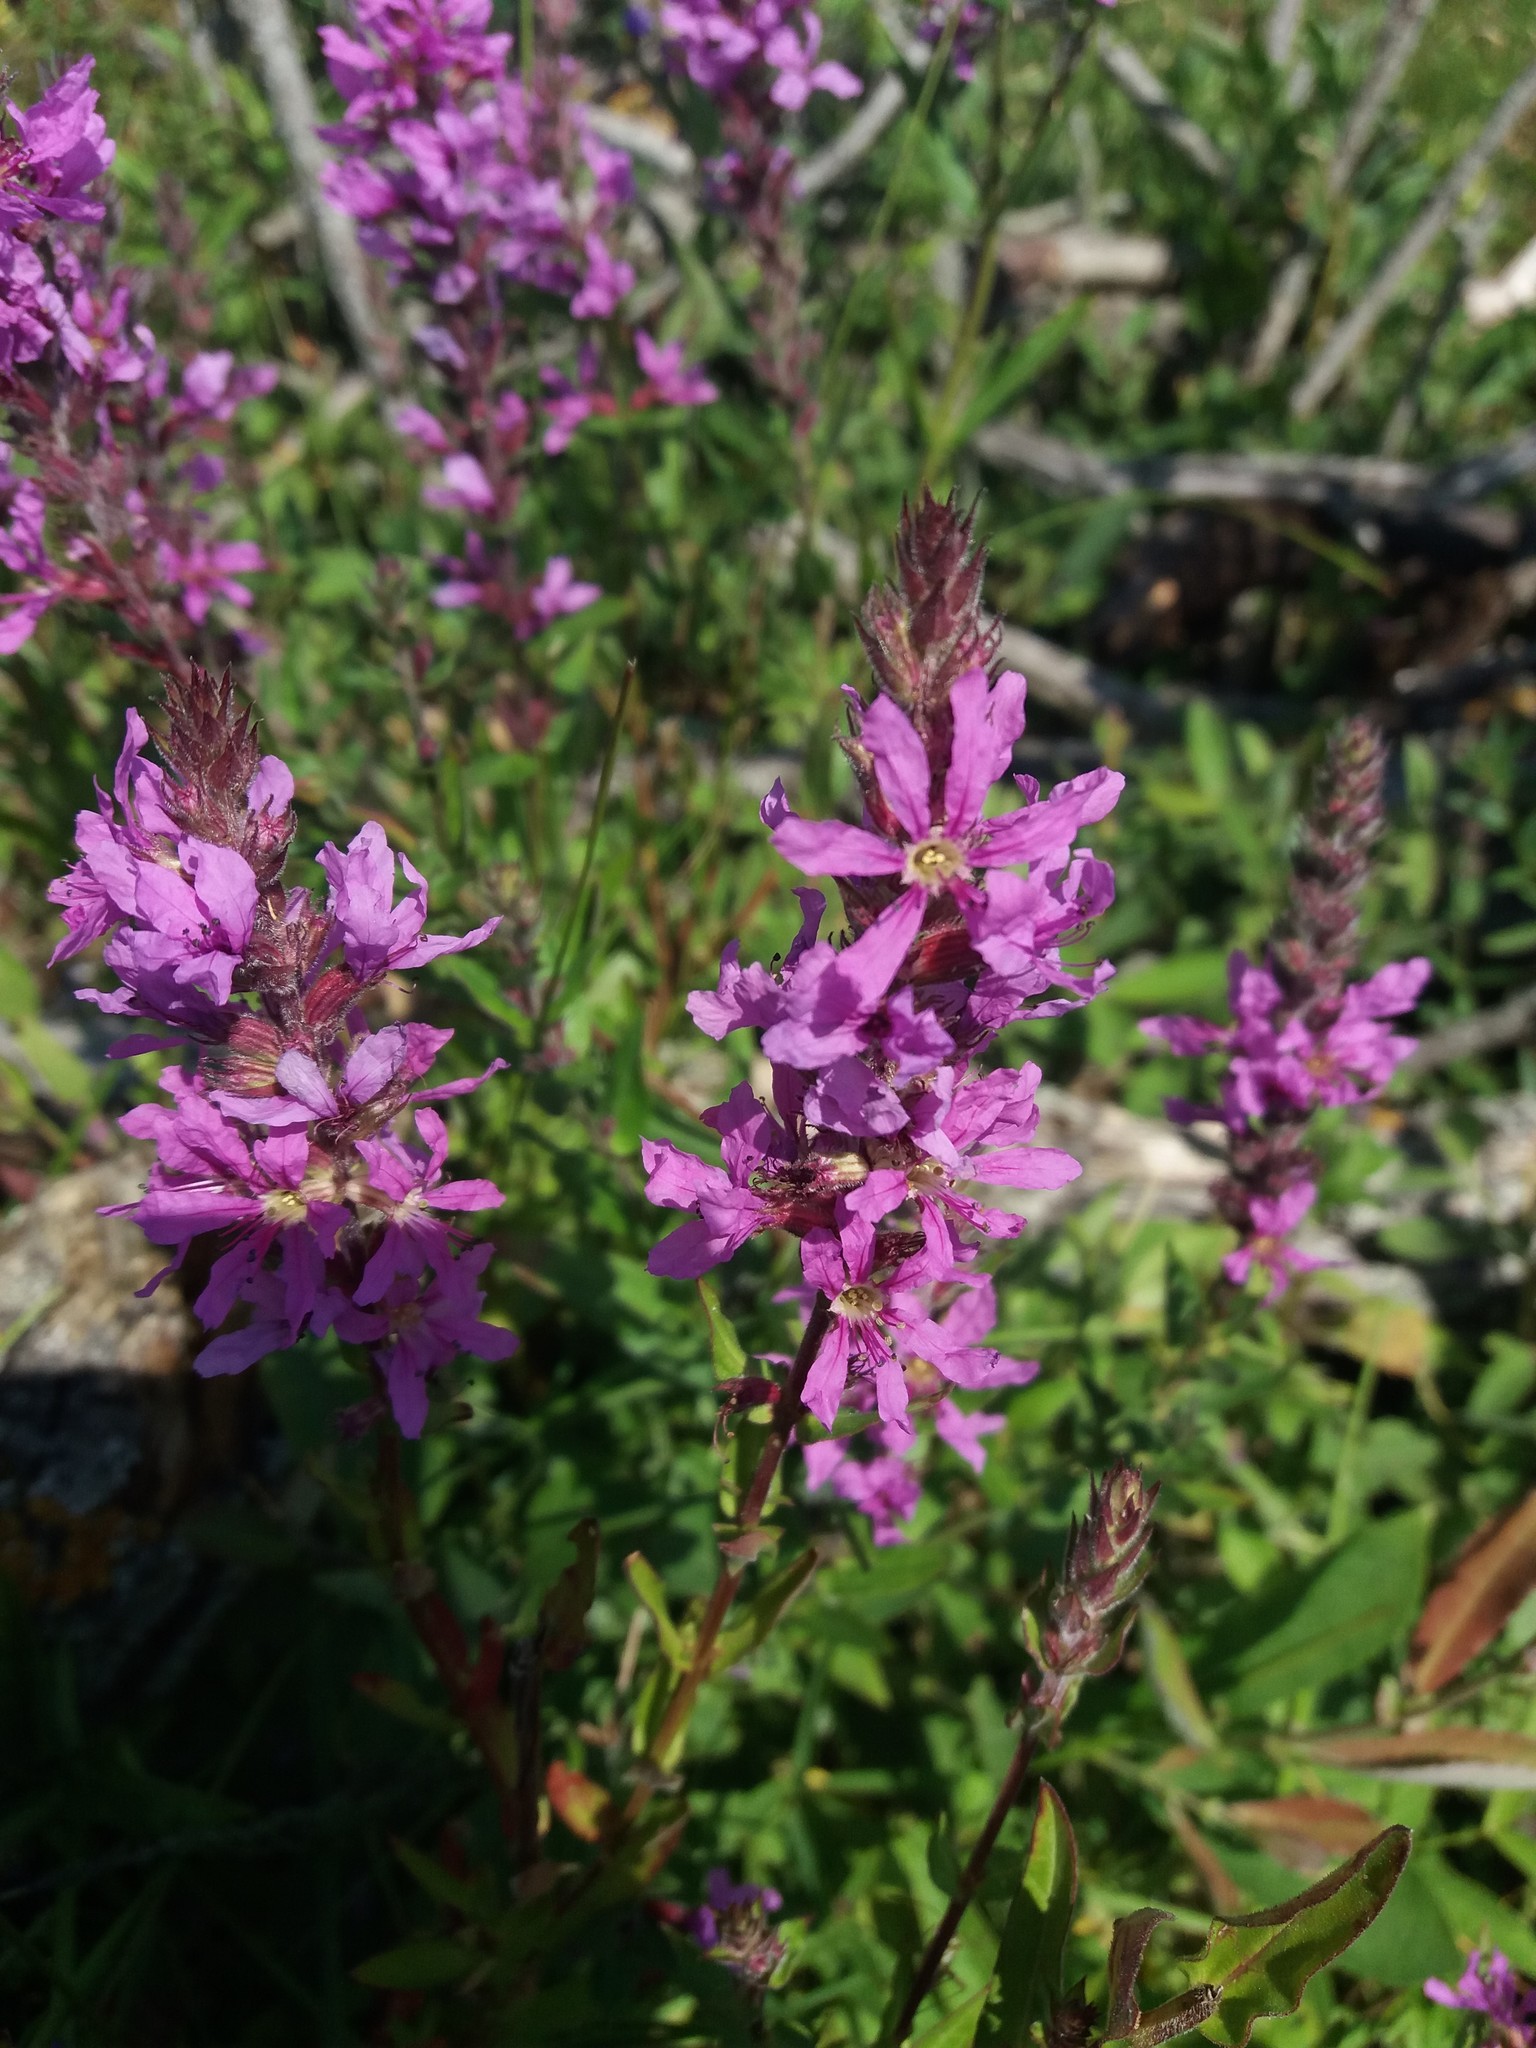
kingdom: Plantae
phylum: Tracheophyta
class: Magnoliopsida
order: Myrtales
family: Lythraceae
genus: Lythrum
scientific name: Lythrum salicaria
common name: Purple loosestrife
